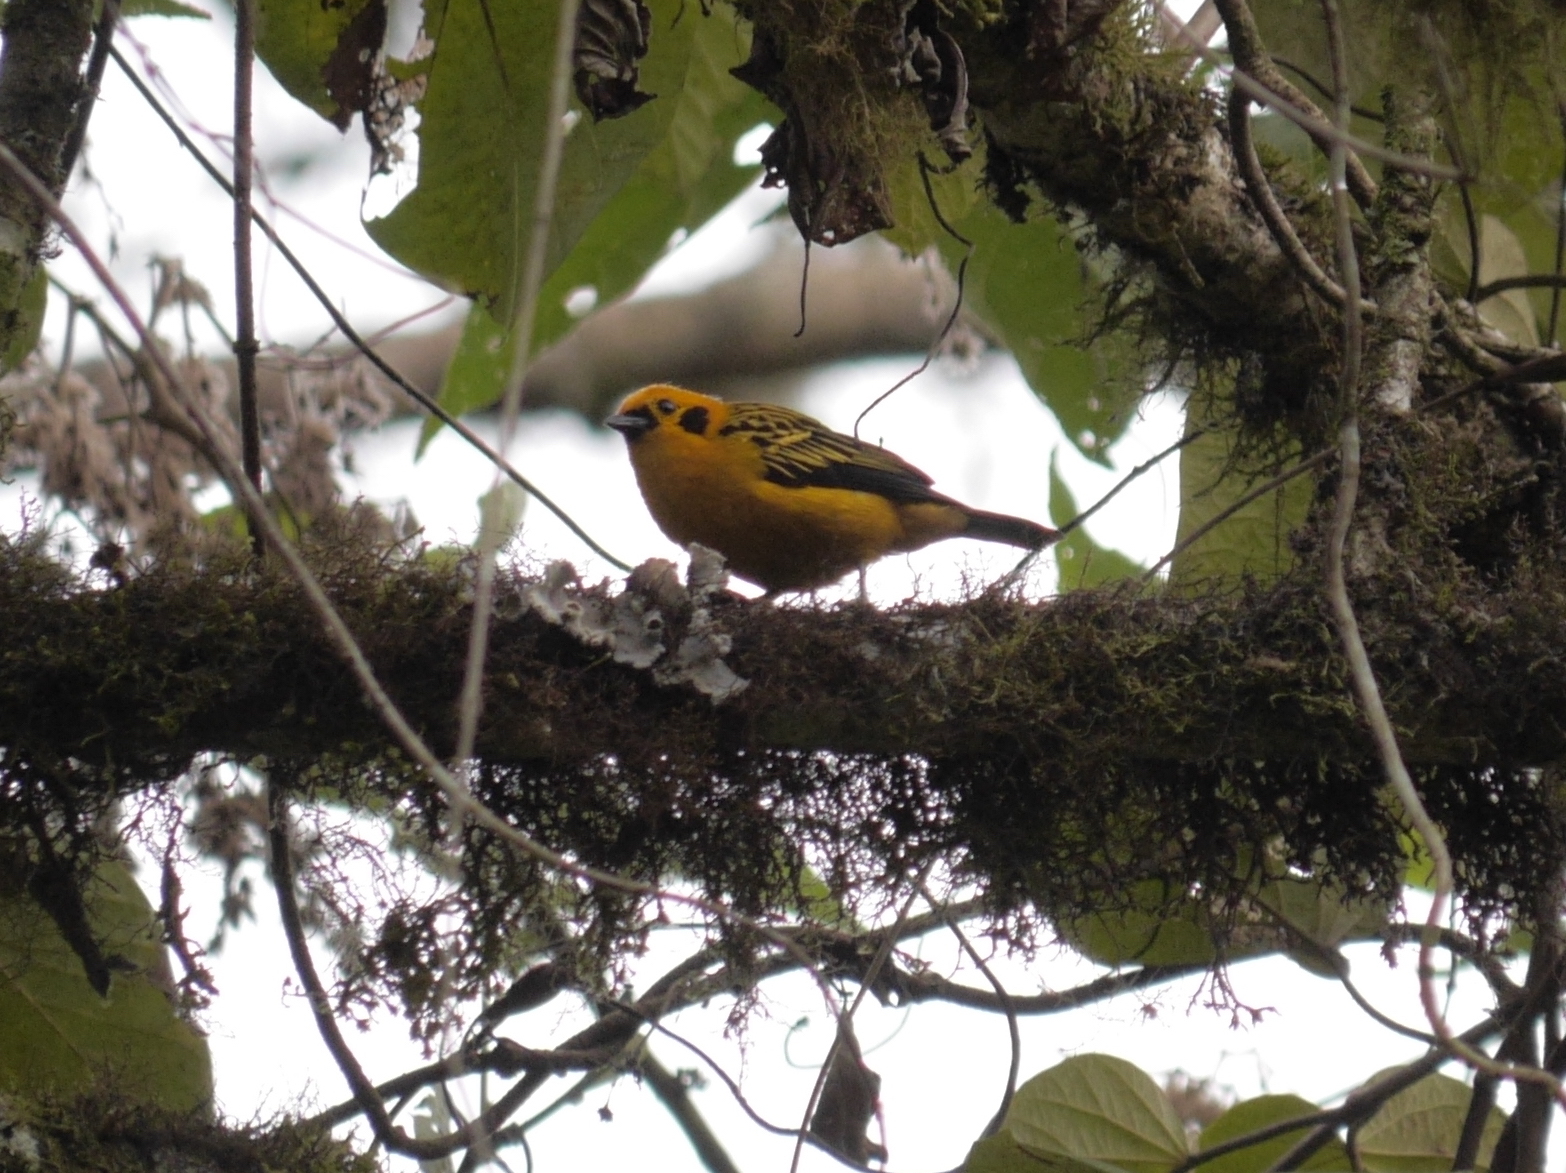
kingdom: Animalia
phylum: Chordata
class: Aves
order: Passeriformes
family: Thraupidae
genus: Tangara
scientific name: Tangara arthus
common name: Golden tanager
